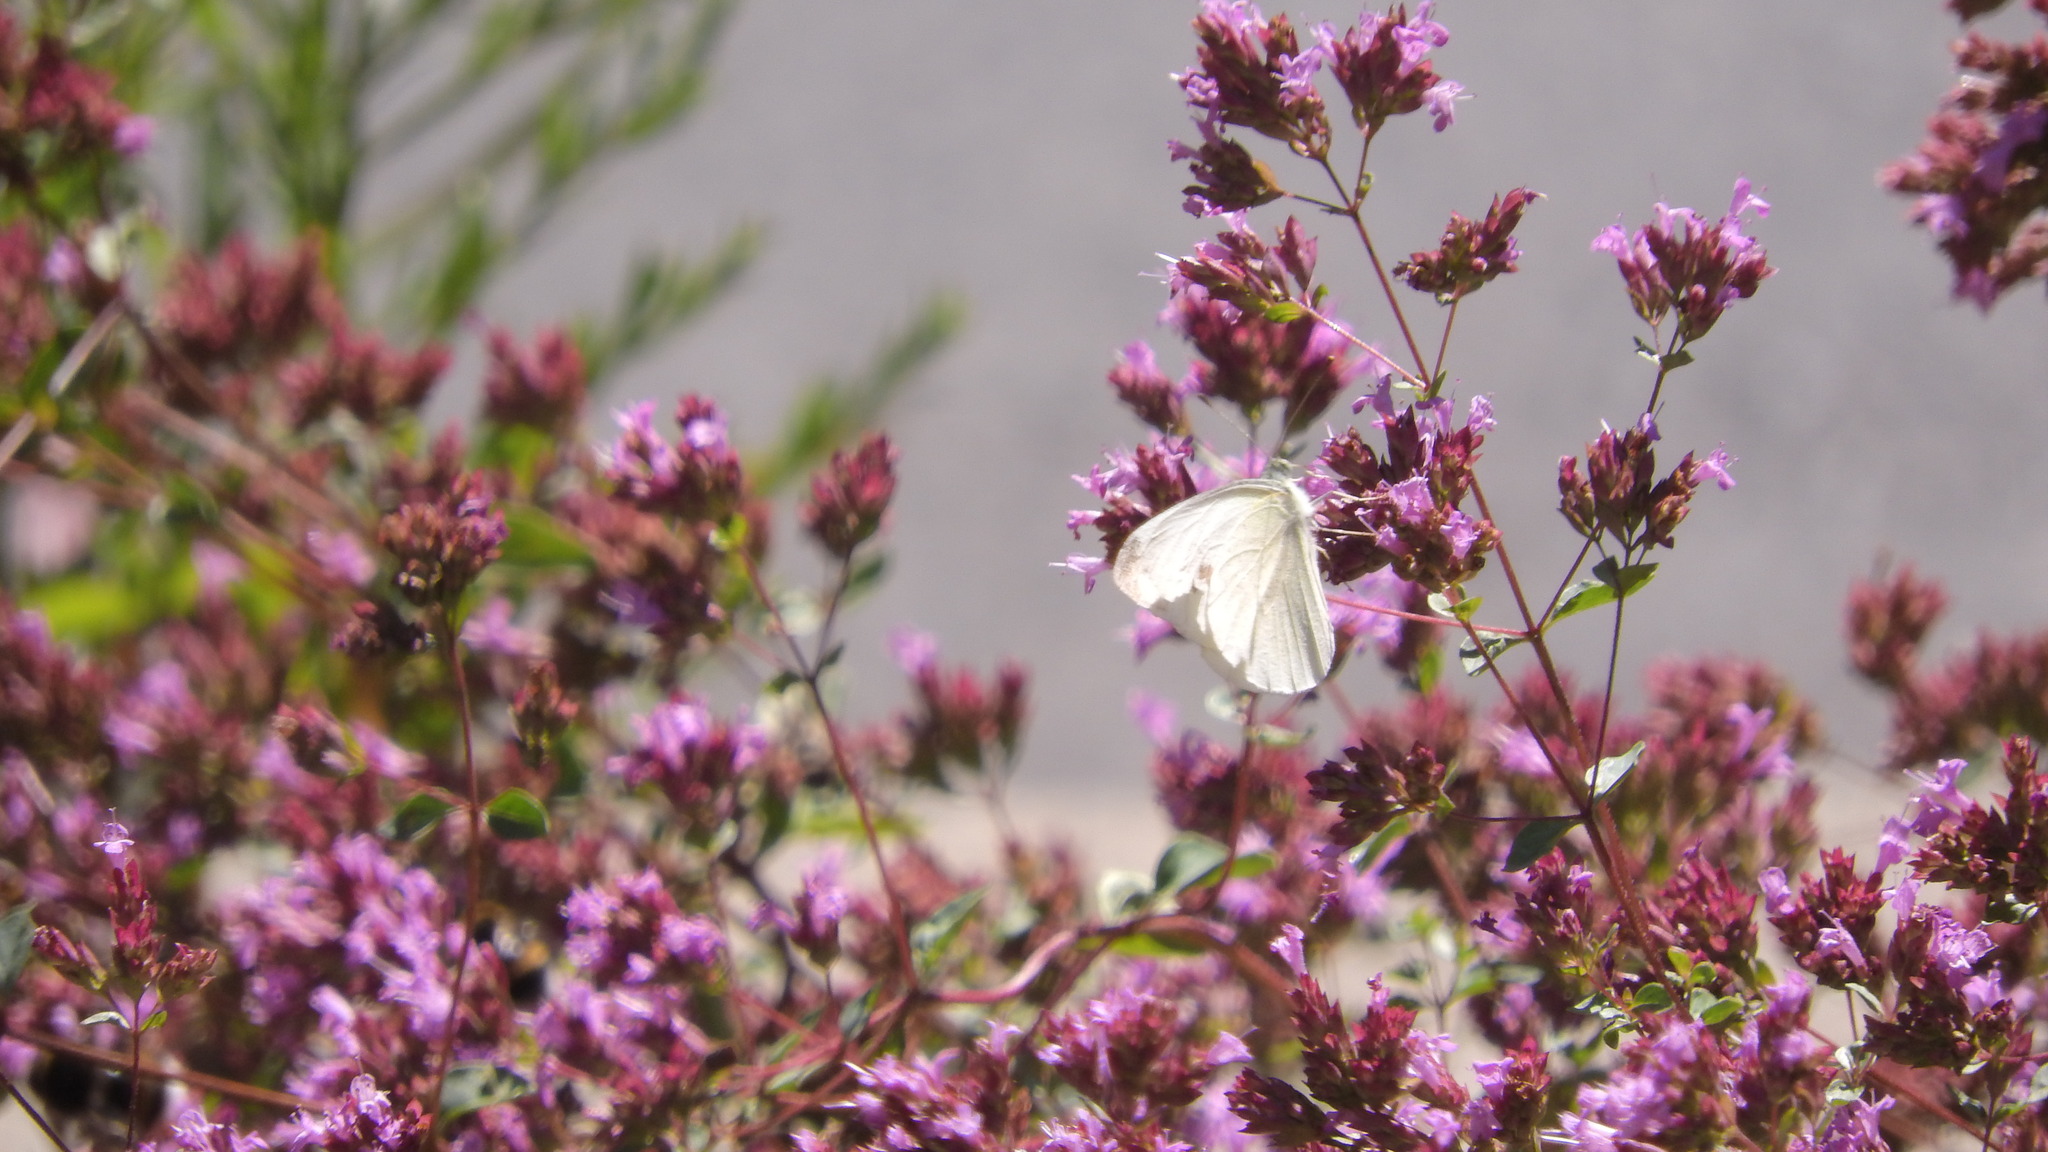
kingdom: Animalia
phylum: Arthropoda
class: Insecta
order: Lepidoptera
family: Pieridae
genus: Pieris
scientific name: Pieris rapae
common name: Small white
